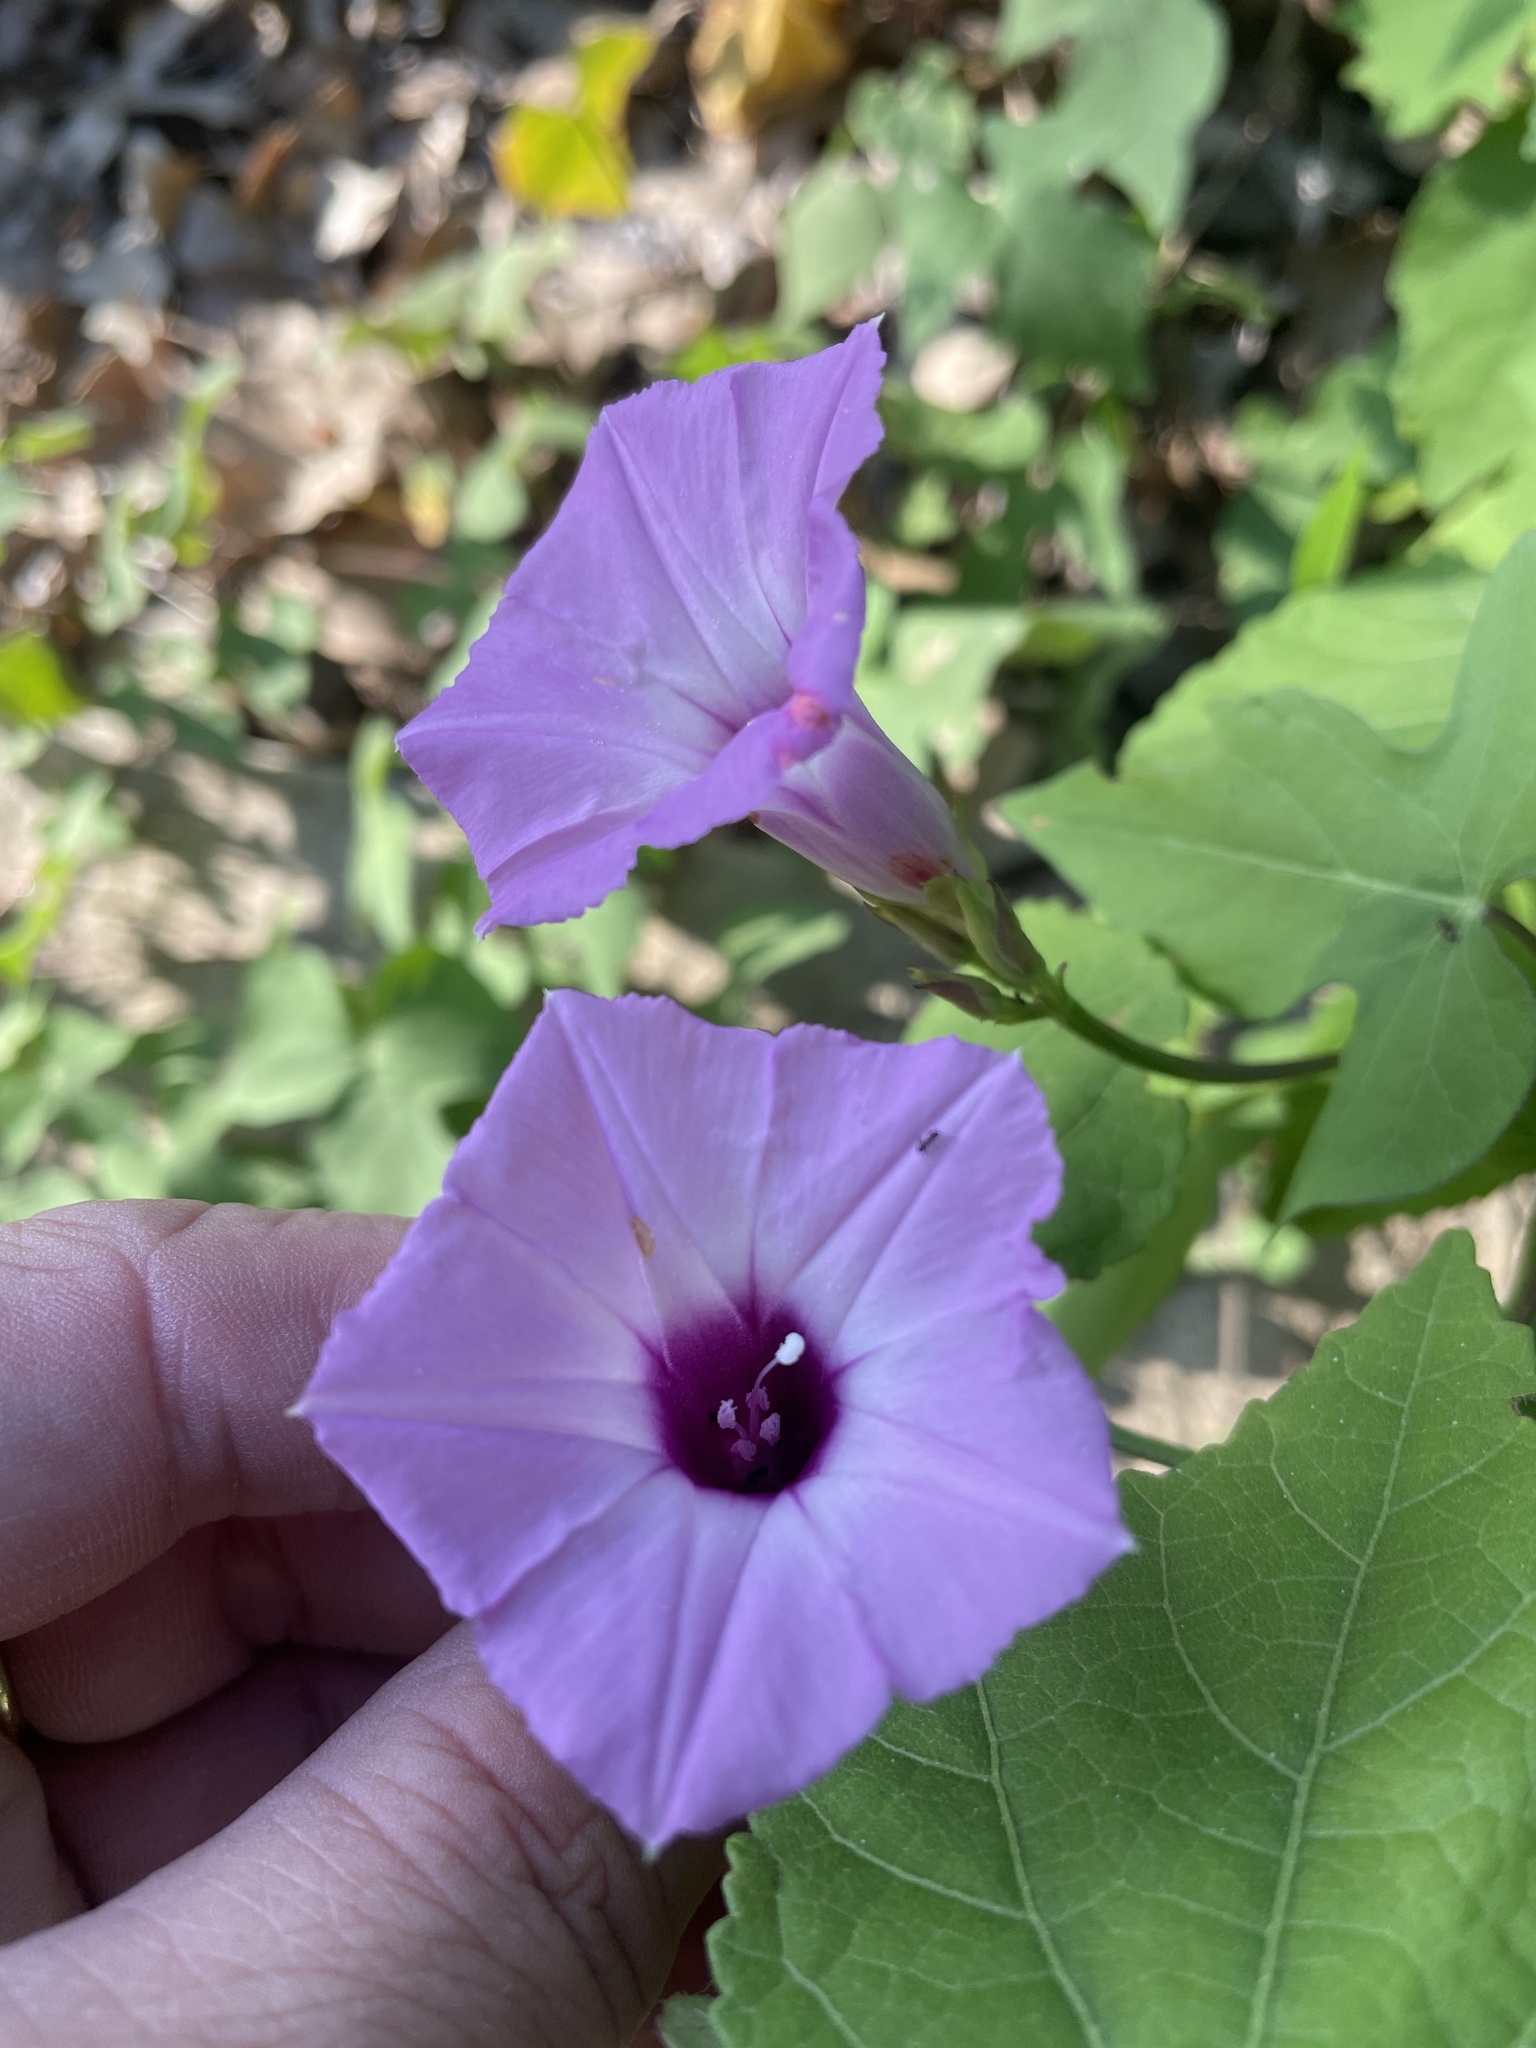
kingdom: Plantae
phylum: Tracheophyta
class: Magnoliopsida
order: Solanales
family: Convolvulaceae
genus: Ipomoea
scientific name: Ipomoea cordatotriloba
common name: Cotton morning glory
